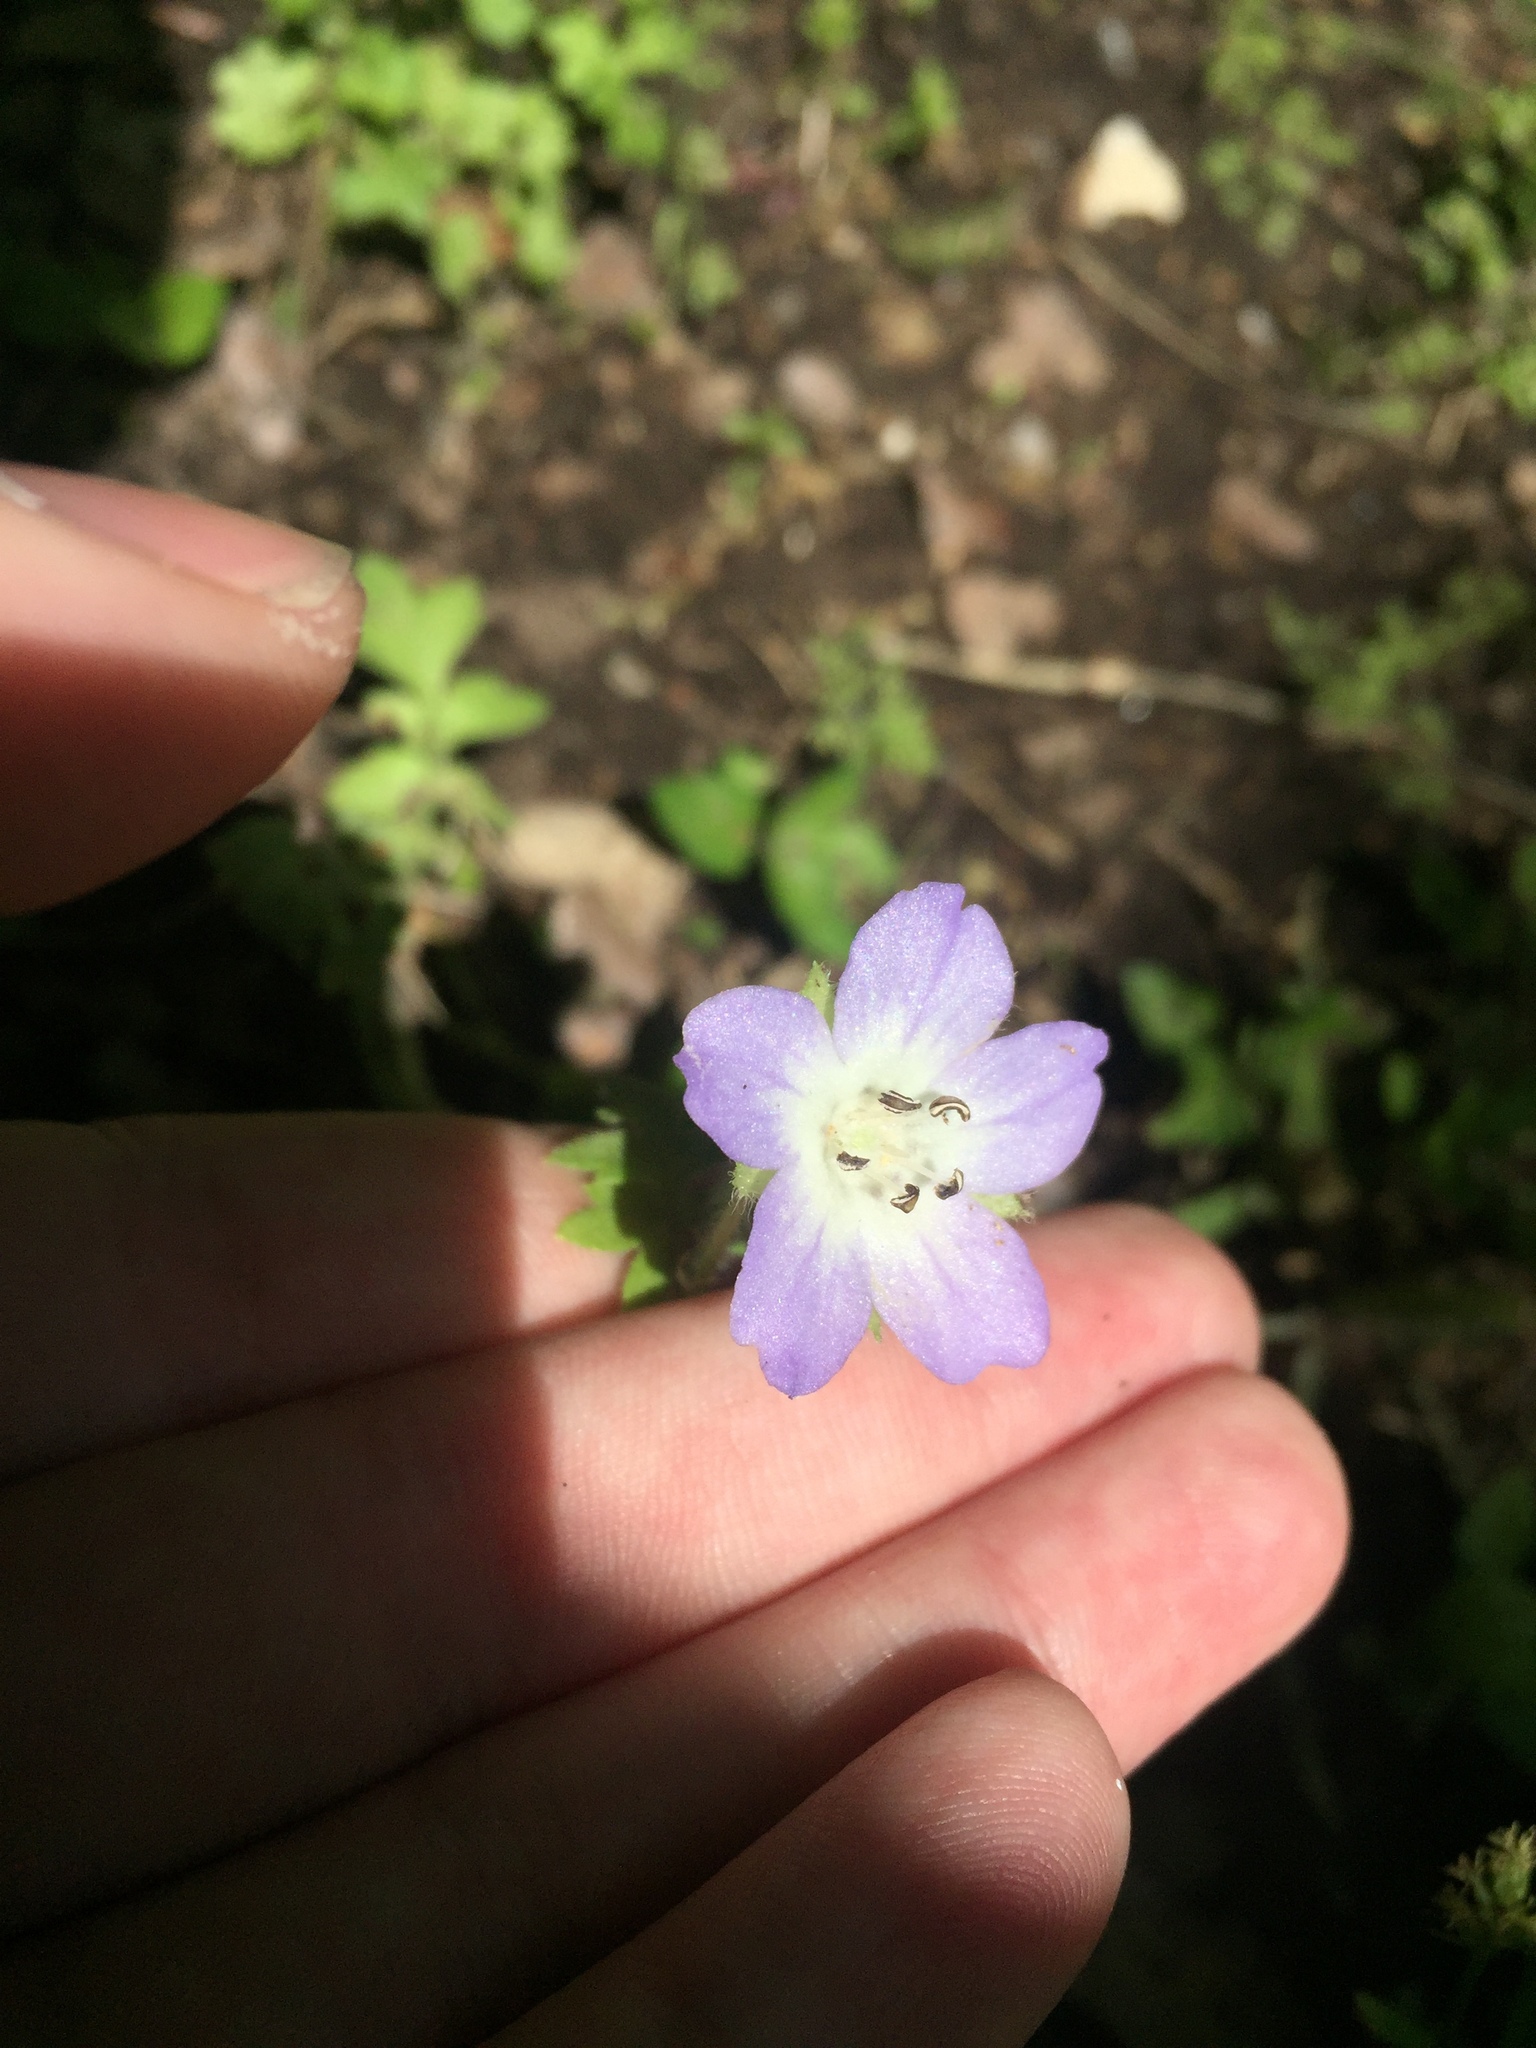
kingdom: Plantae
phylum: Tracheophyta
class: Magnoliopsida
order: Boraginales
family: Hydrophyllaceae
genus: Nemophila
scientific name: Nemophila phacelioides
